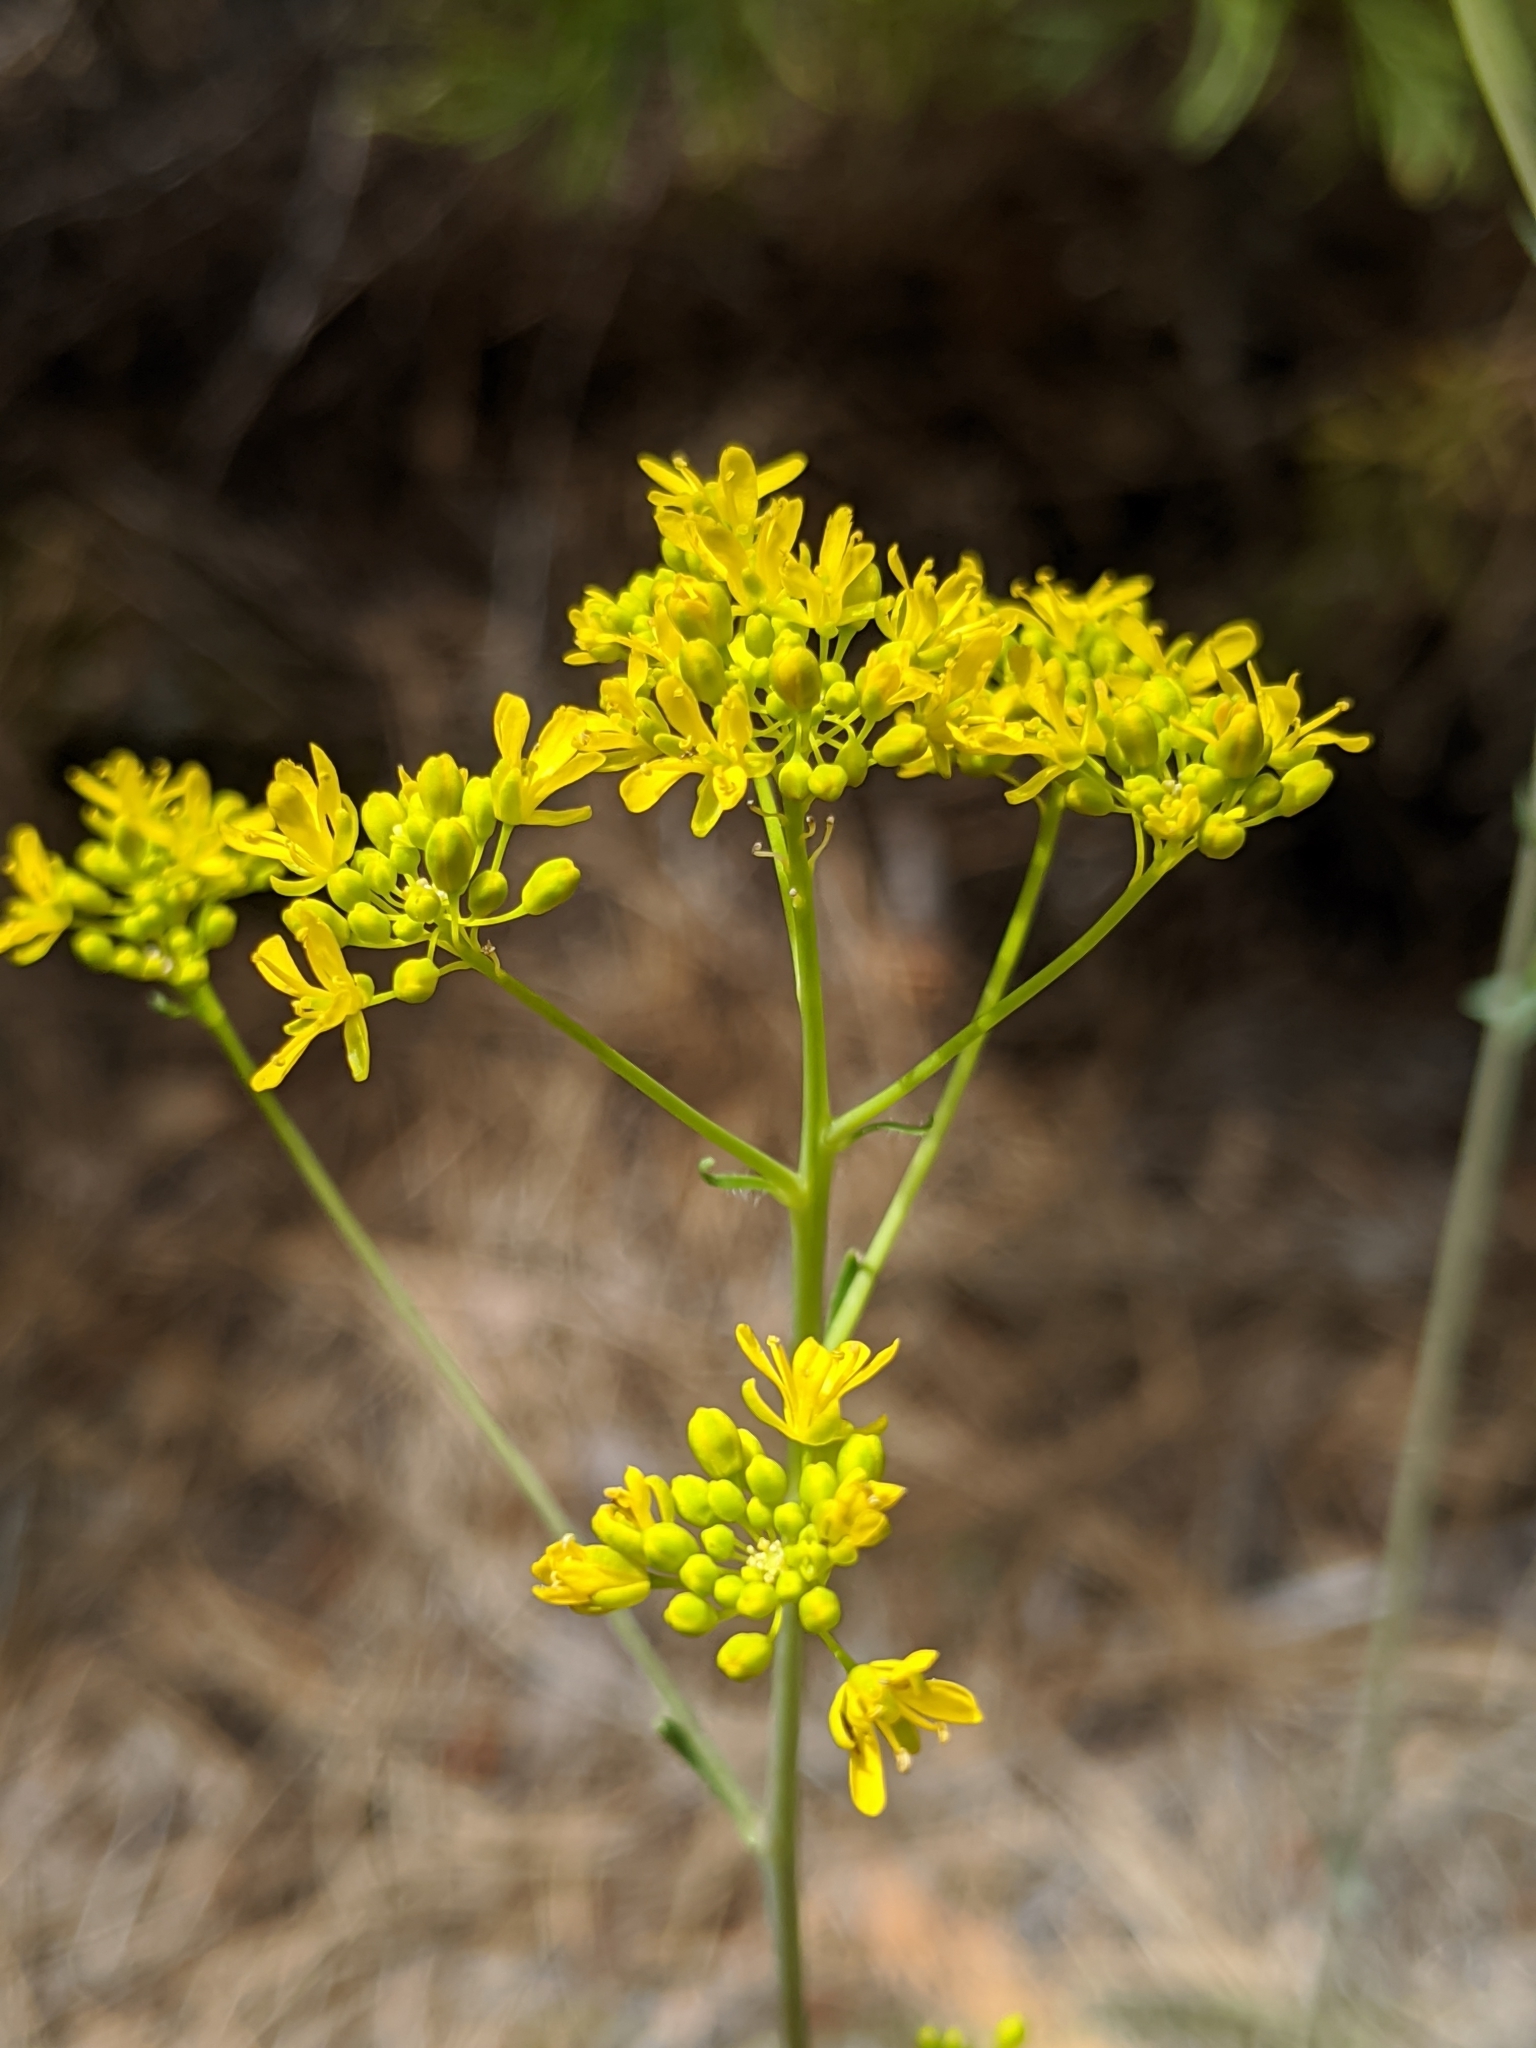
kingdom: Plantae
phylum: Tracheophyta
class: Magnoliopsida
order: Brassicales
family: Brassicaceae
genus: Isatis
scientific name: Isatis tinctoria
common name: Woad
